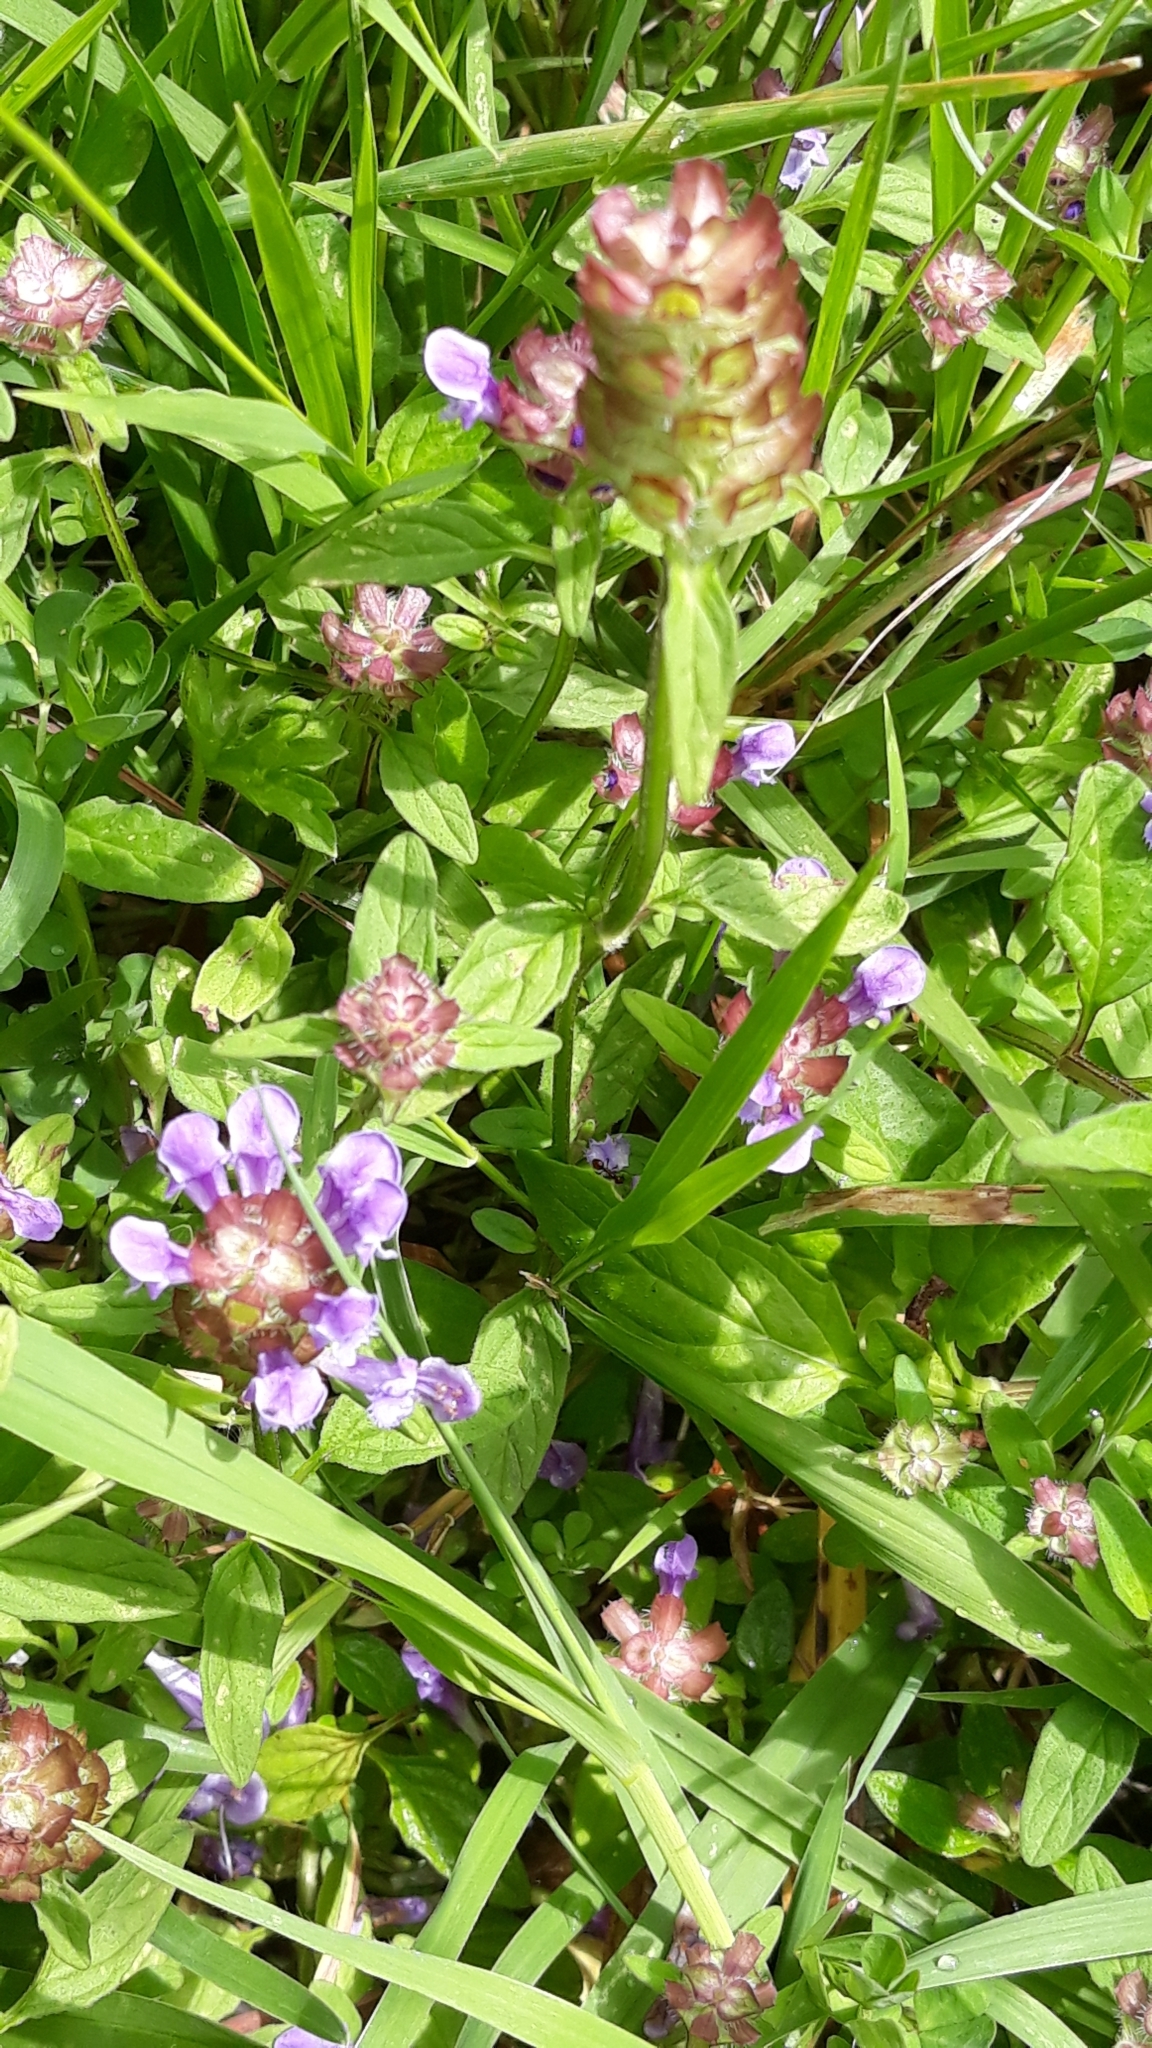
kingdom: Plantae
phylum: Tracheophyta
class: Magnoliopsida
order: Lamiales
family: Lamiaceae
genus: Prunella
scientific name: Prunella vulgaris
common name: Heal-all
